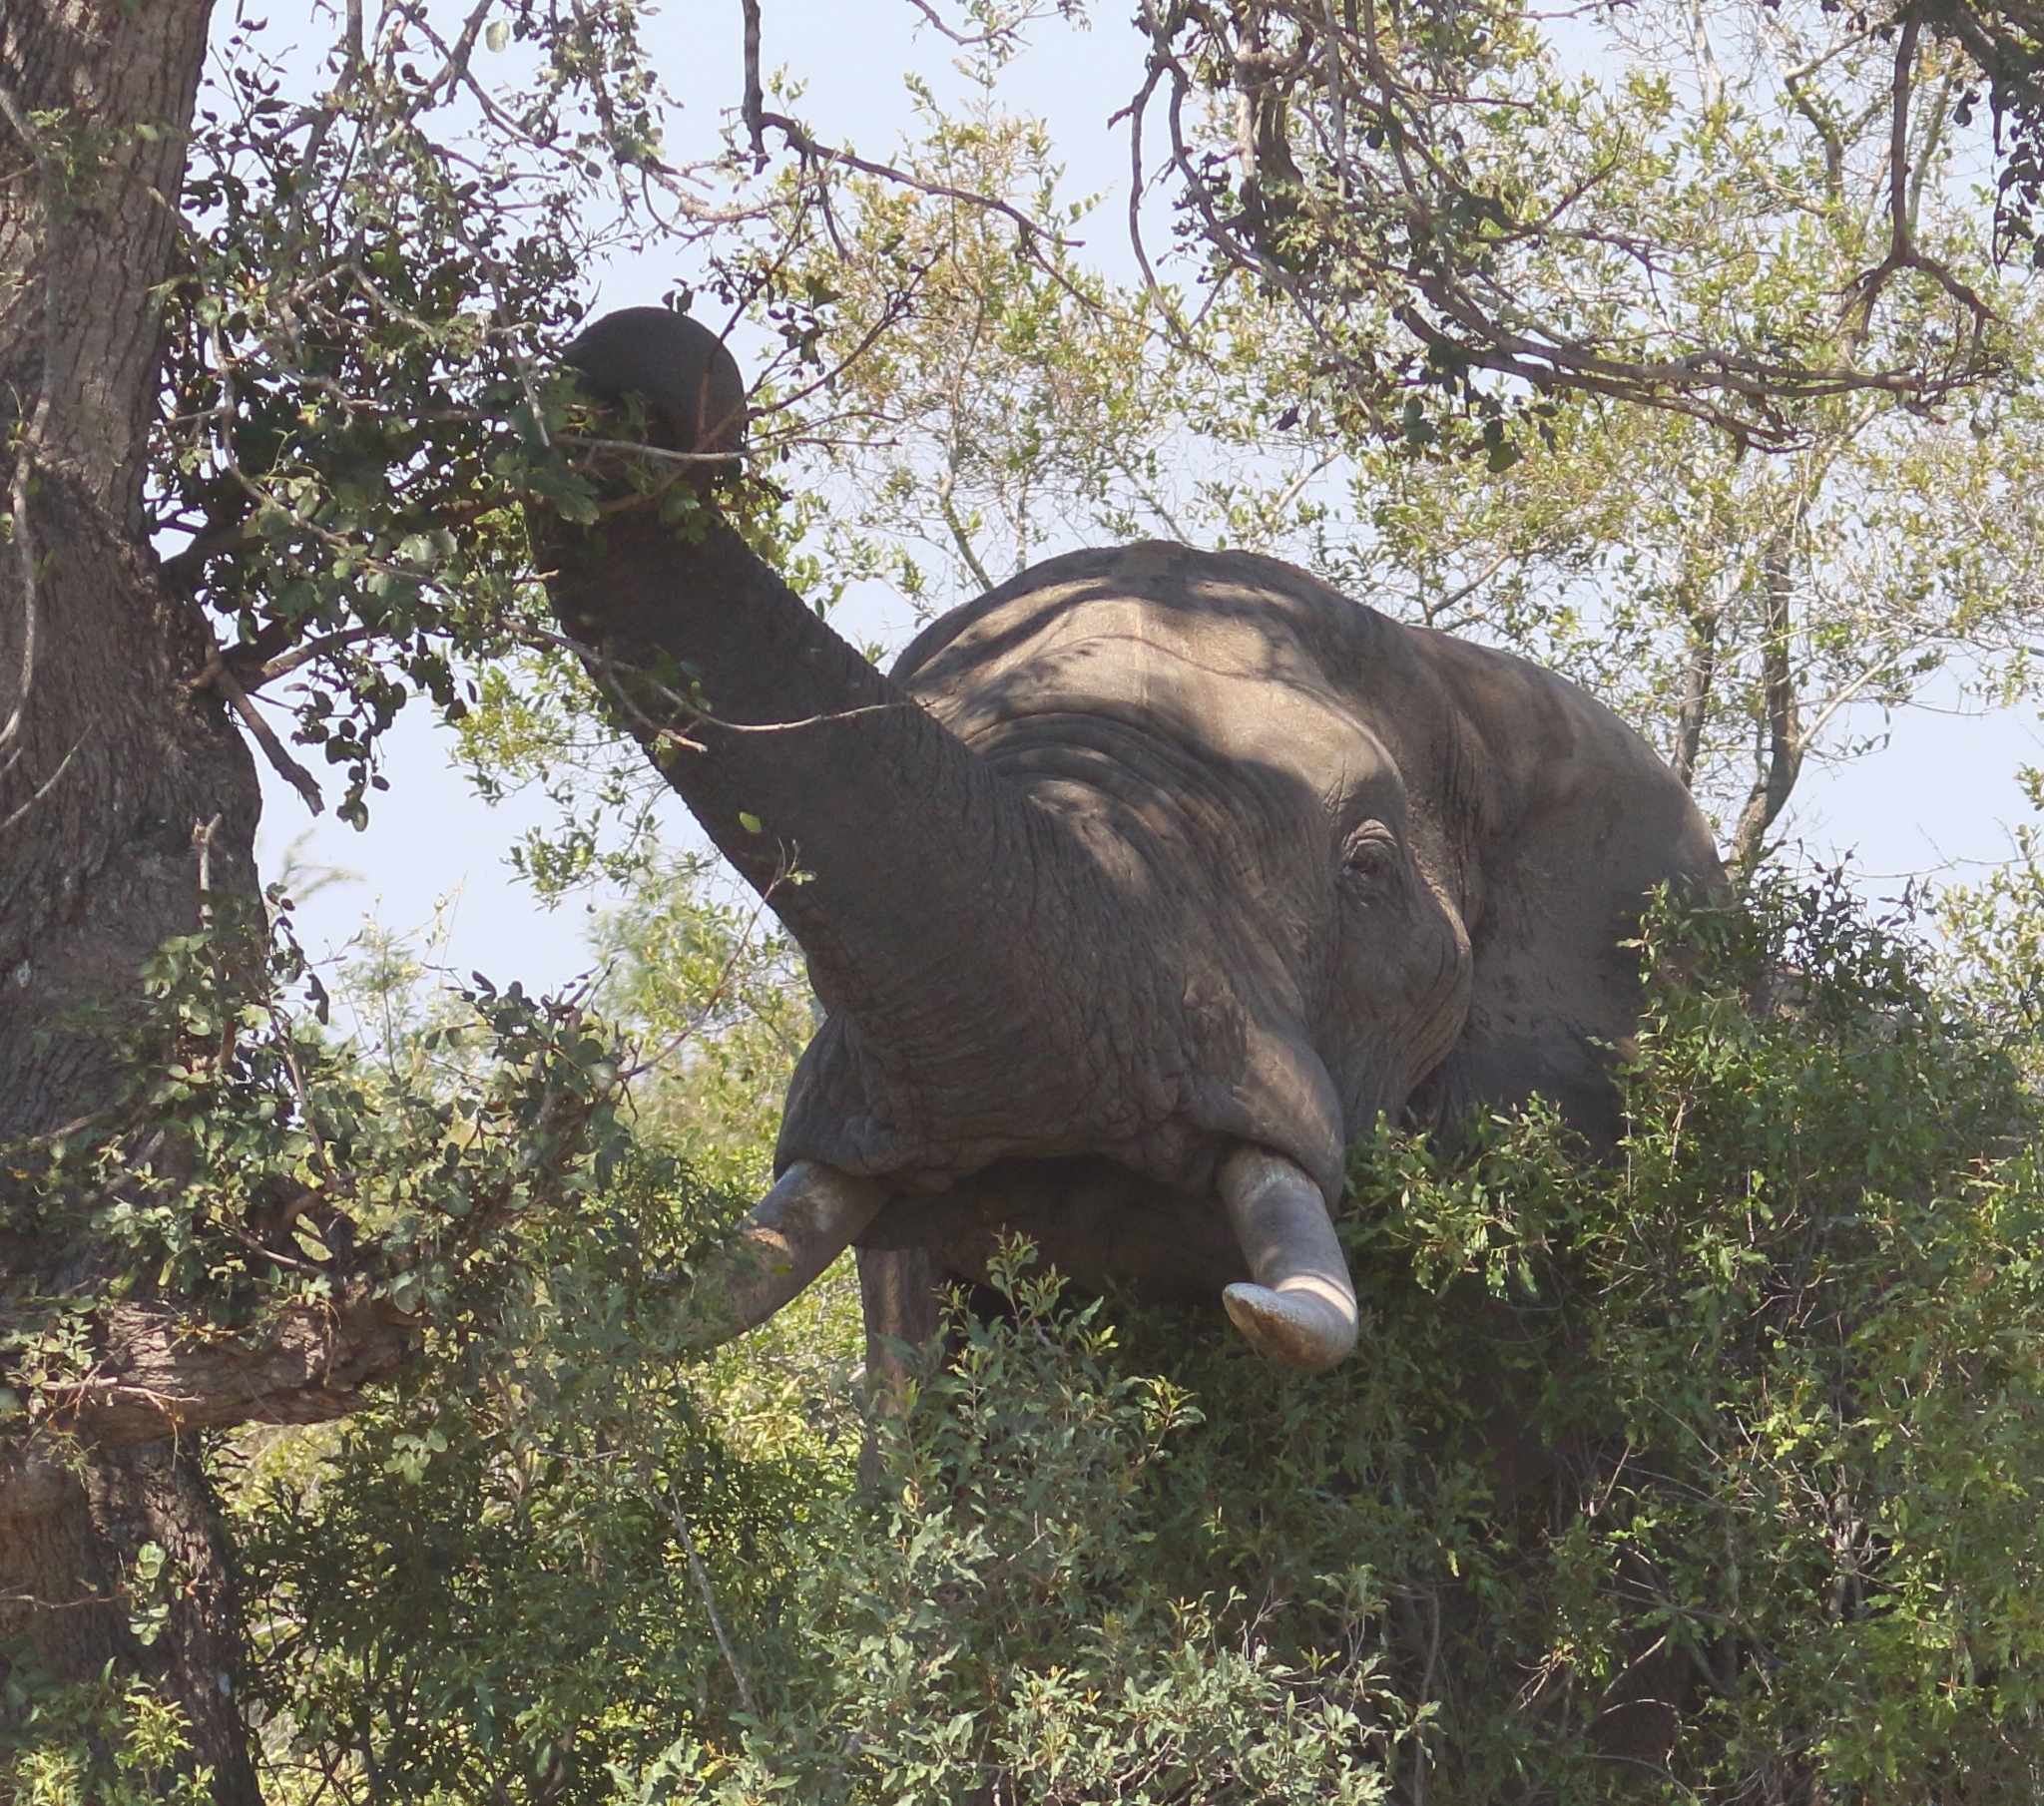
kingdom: Animalia
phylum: Chordata
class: Mammalia
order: Proboscidea
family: Elephantidae
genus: Loxodonta
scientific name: Loxodonta africana
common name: African elephant
